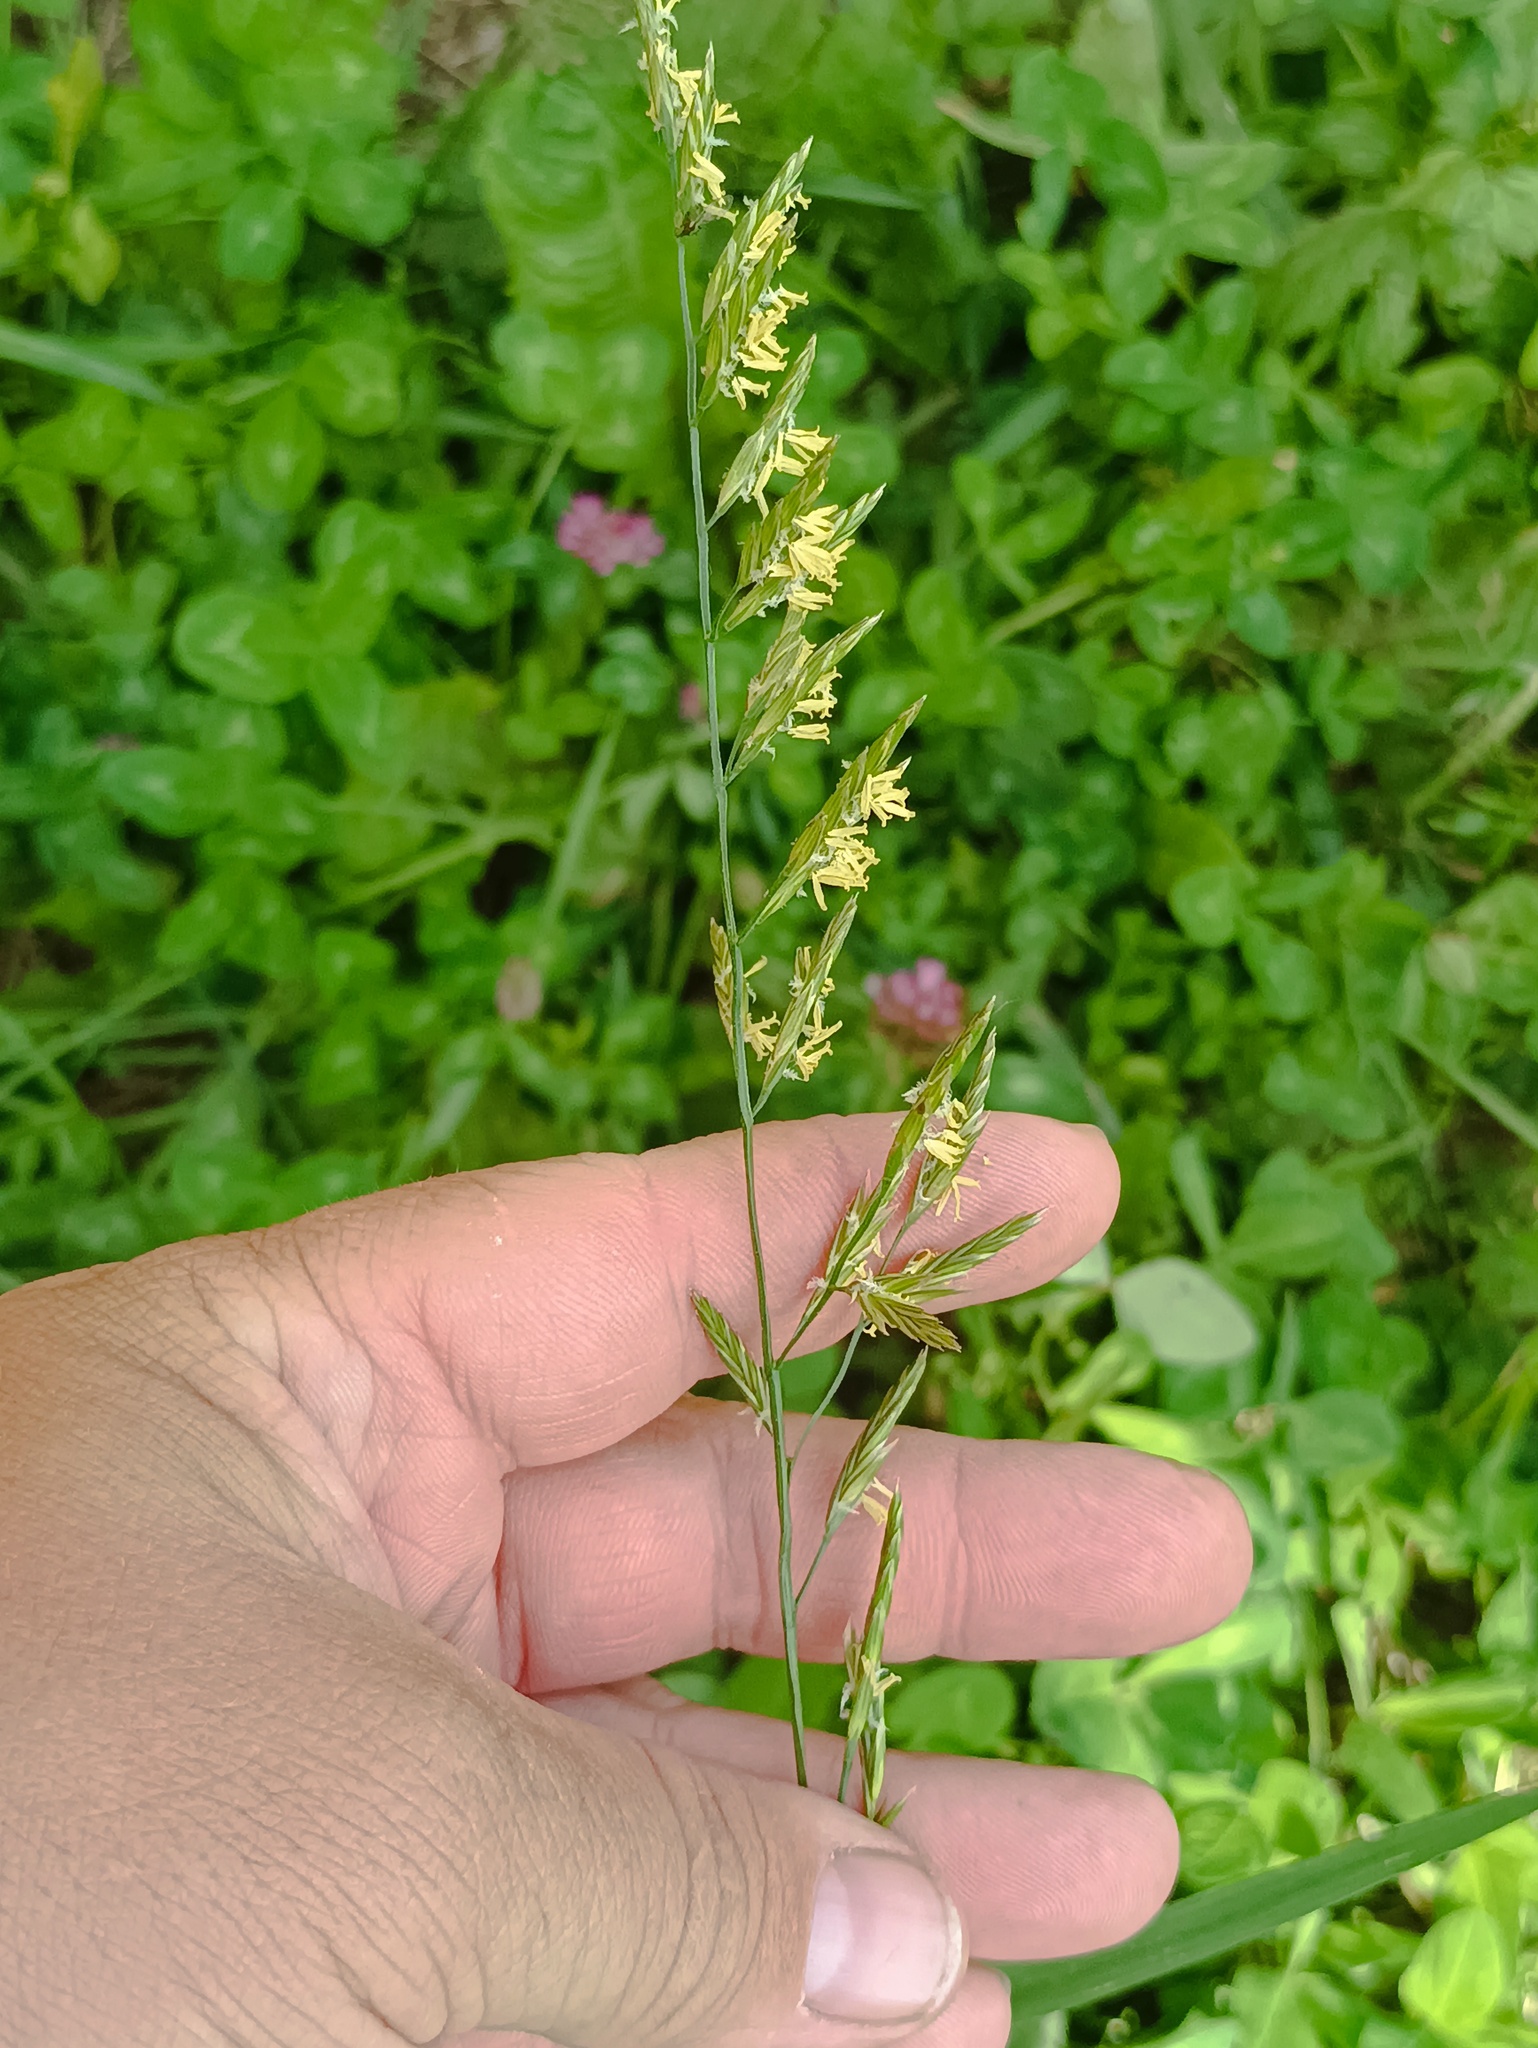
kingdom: Plantae
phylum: Tracheophyta
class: Liliopsida
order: Poales
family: Poaceae
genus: Lolium
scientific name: Lolium pratense
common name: Dover grass
